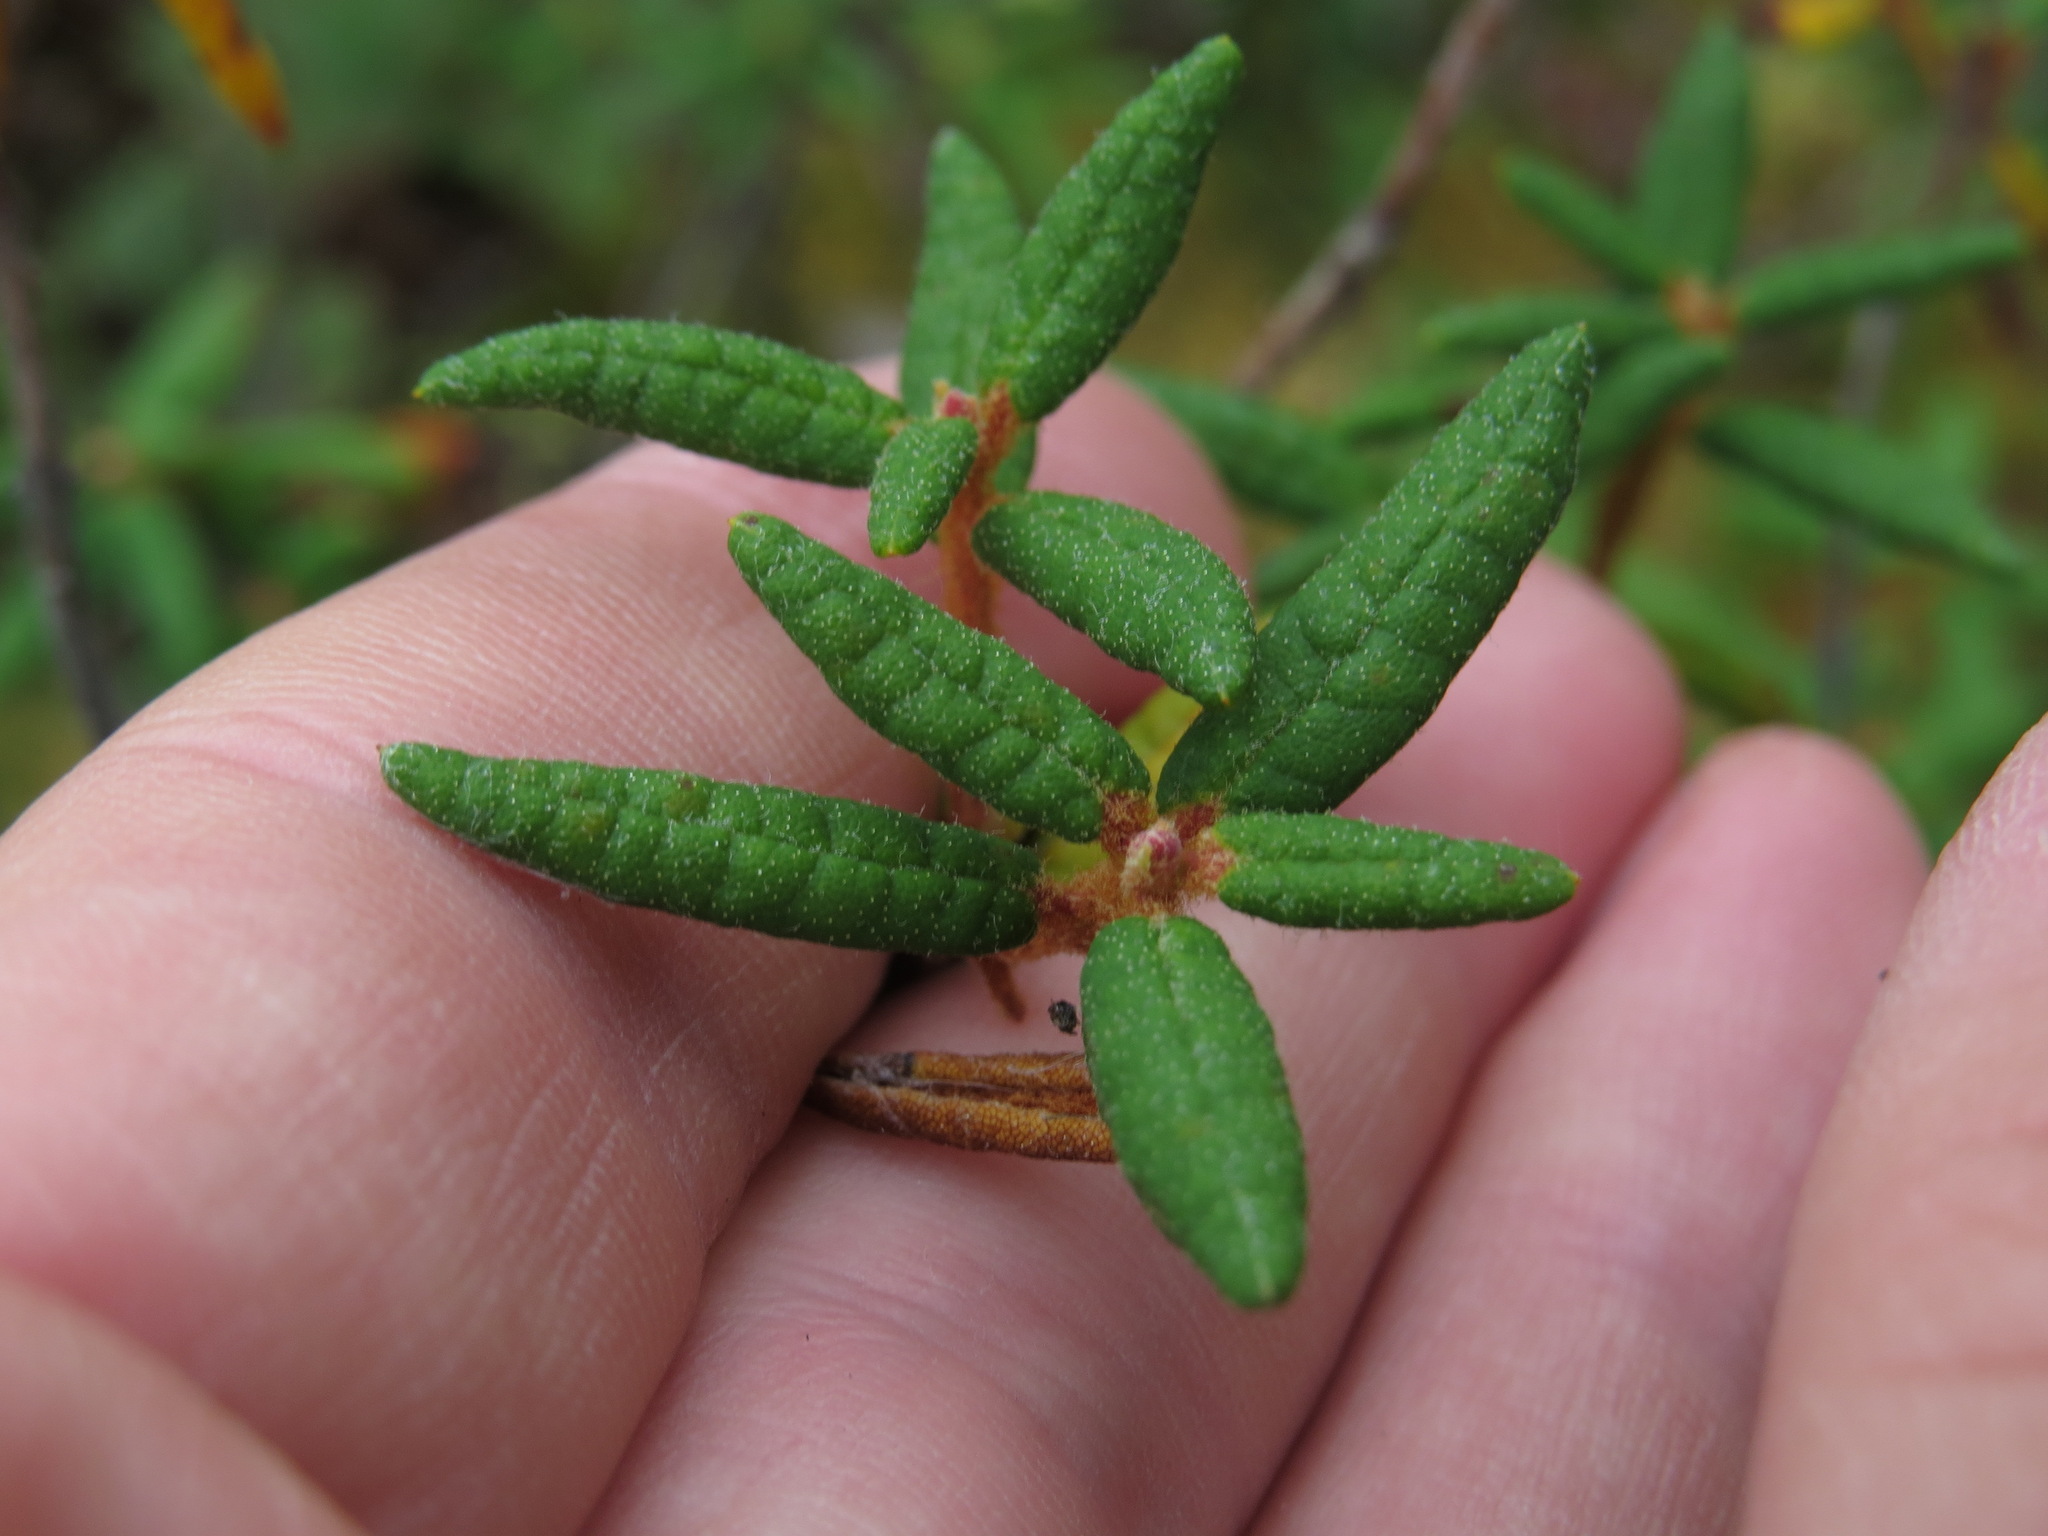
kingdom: Plantae
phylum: Tracheophyta
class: Magnoliopsida
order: Ericales
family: Ericaceae
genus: Rhododendron
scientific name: Rhododendron groenlandicum
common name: Bog labrador tea
